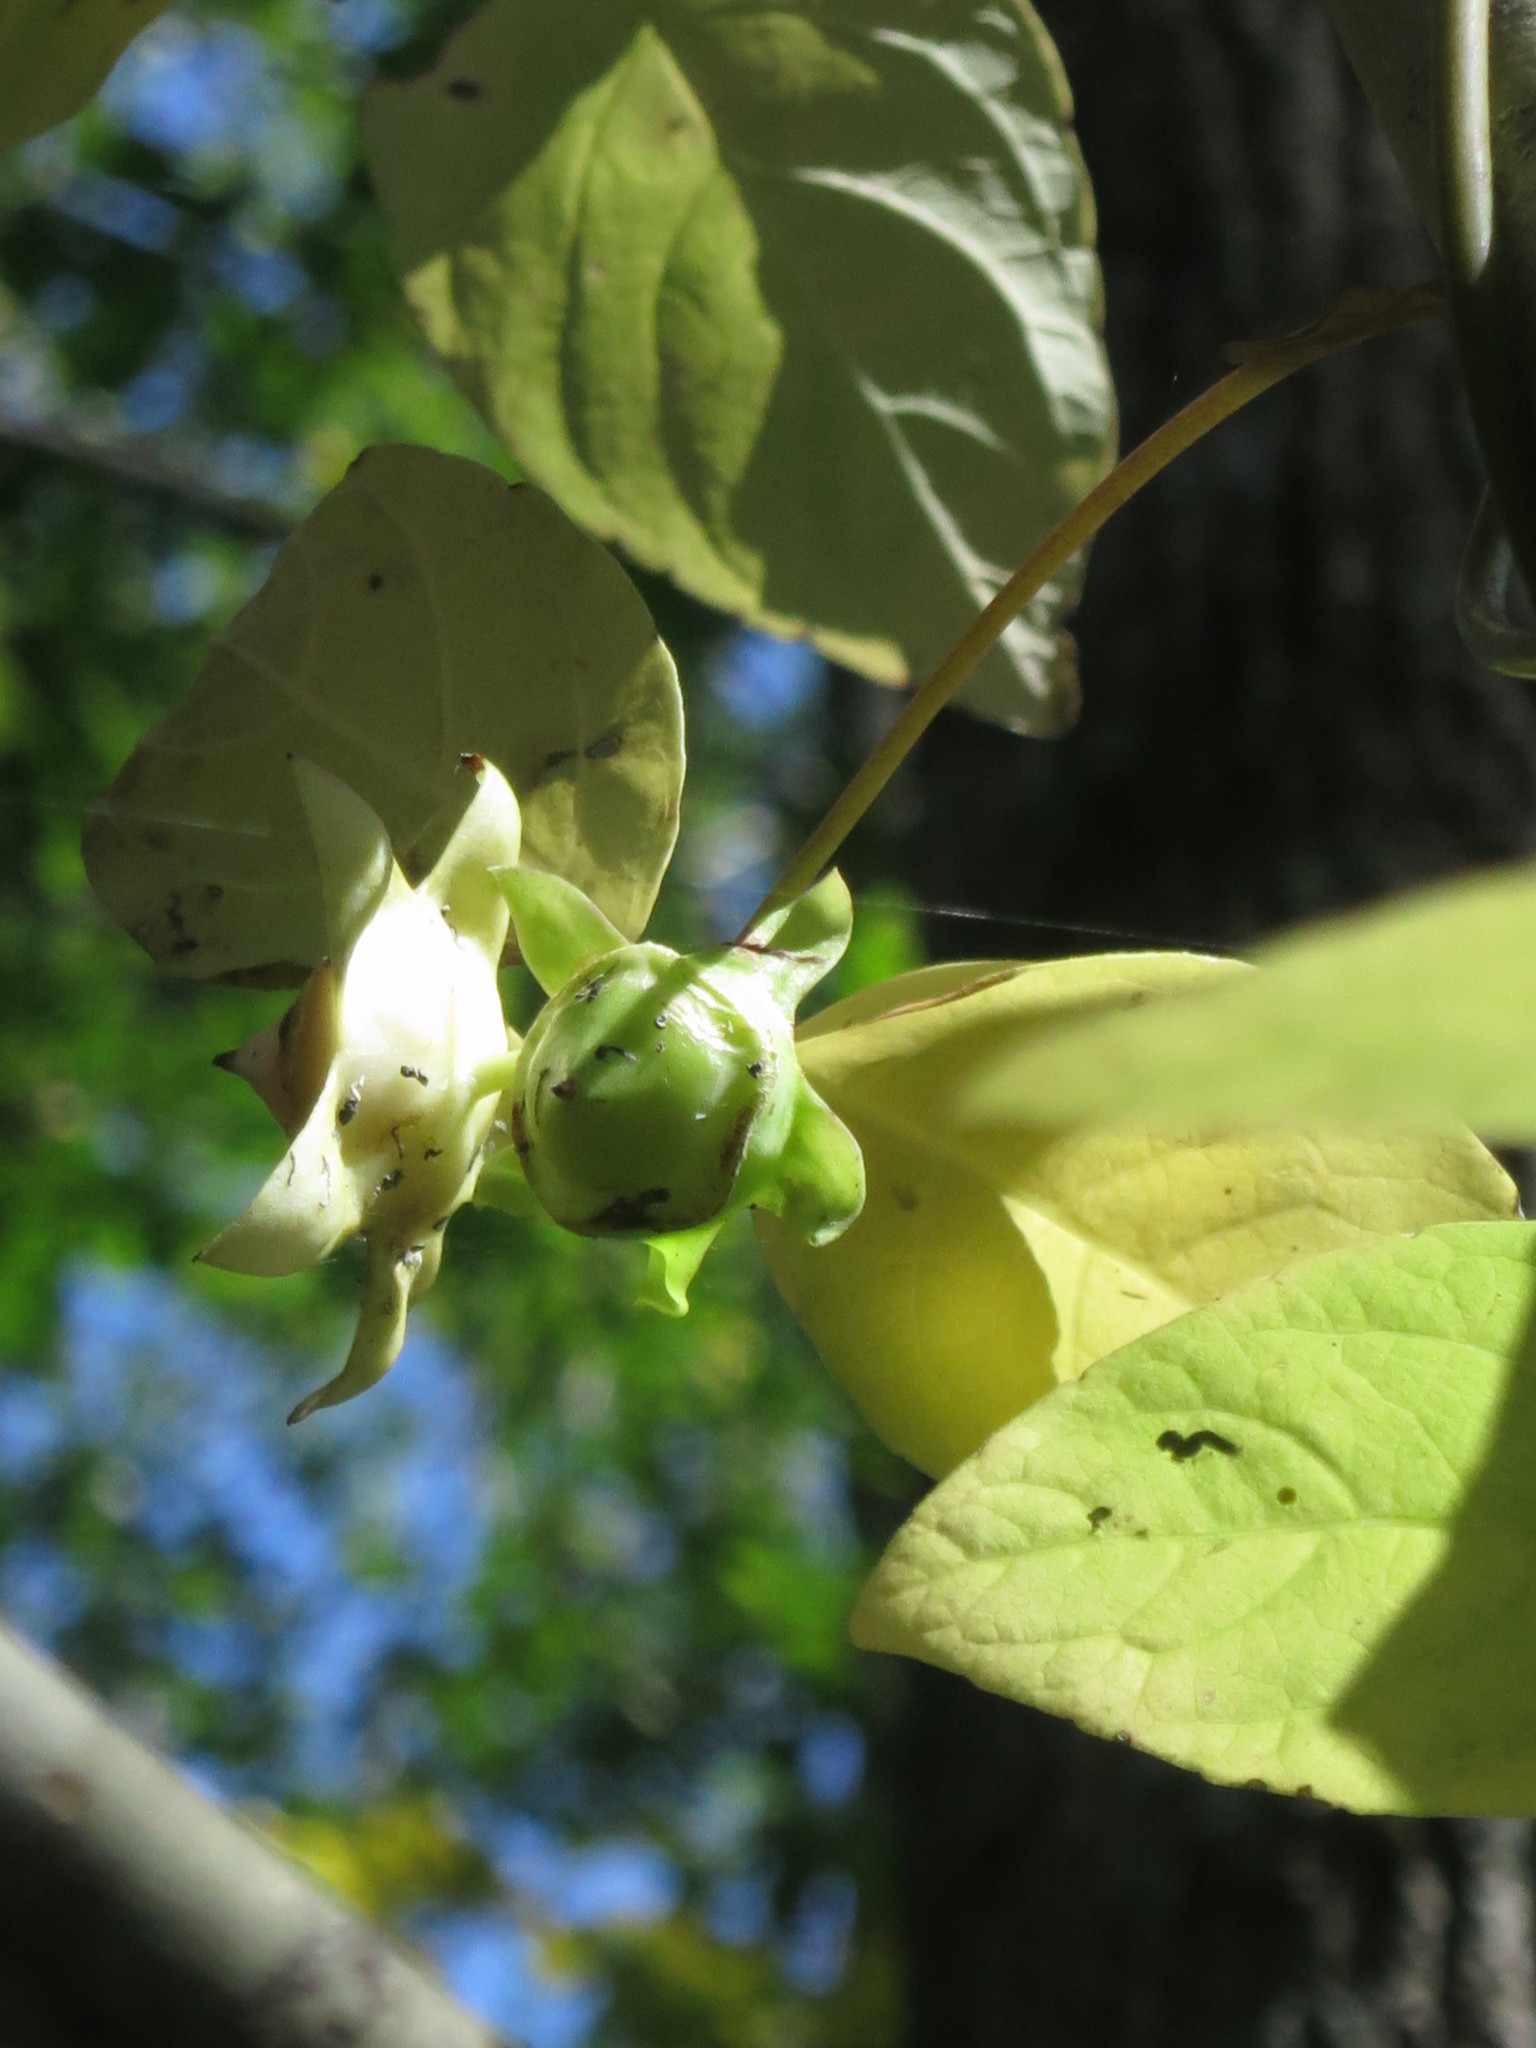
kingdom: Plantae
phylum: Tracheophyta
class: Magnoliopsida
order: Asterales
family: Campanulaceae
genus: Codonopsis
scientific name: Codonopsis lanceolata
